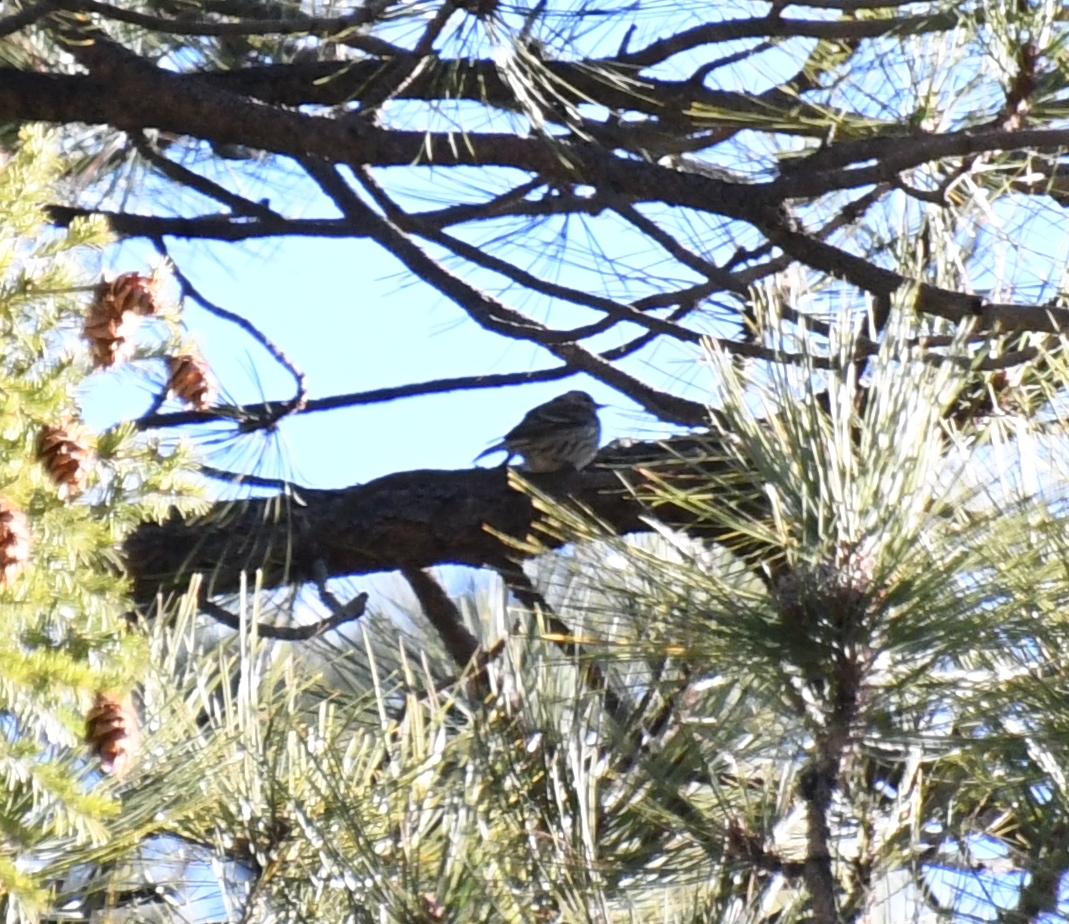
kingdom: Animalia
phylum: Chordata
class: Aves
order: Passeriformes
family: Fringillidae
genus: Spinus
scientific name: Spinus pinus
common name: Pine siskin
